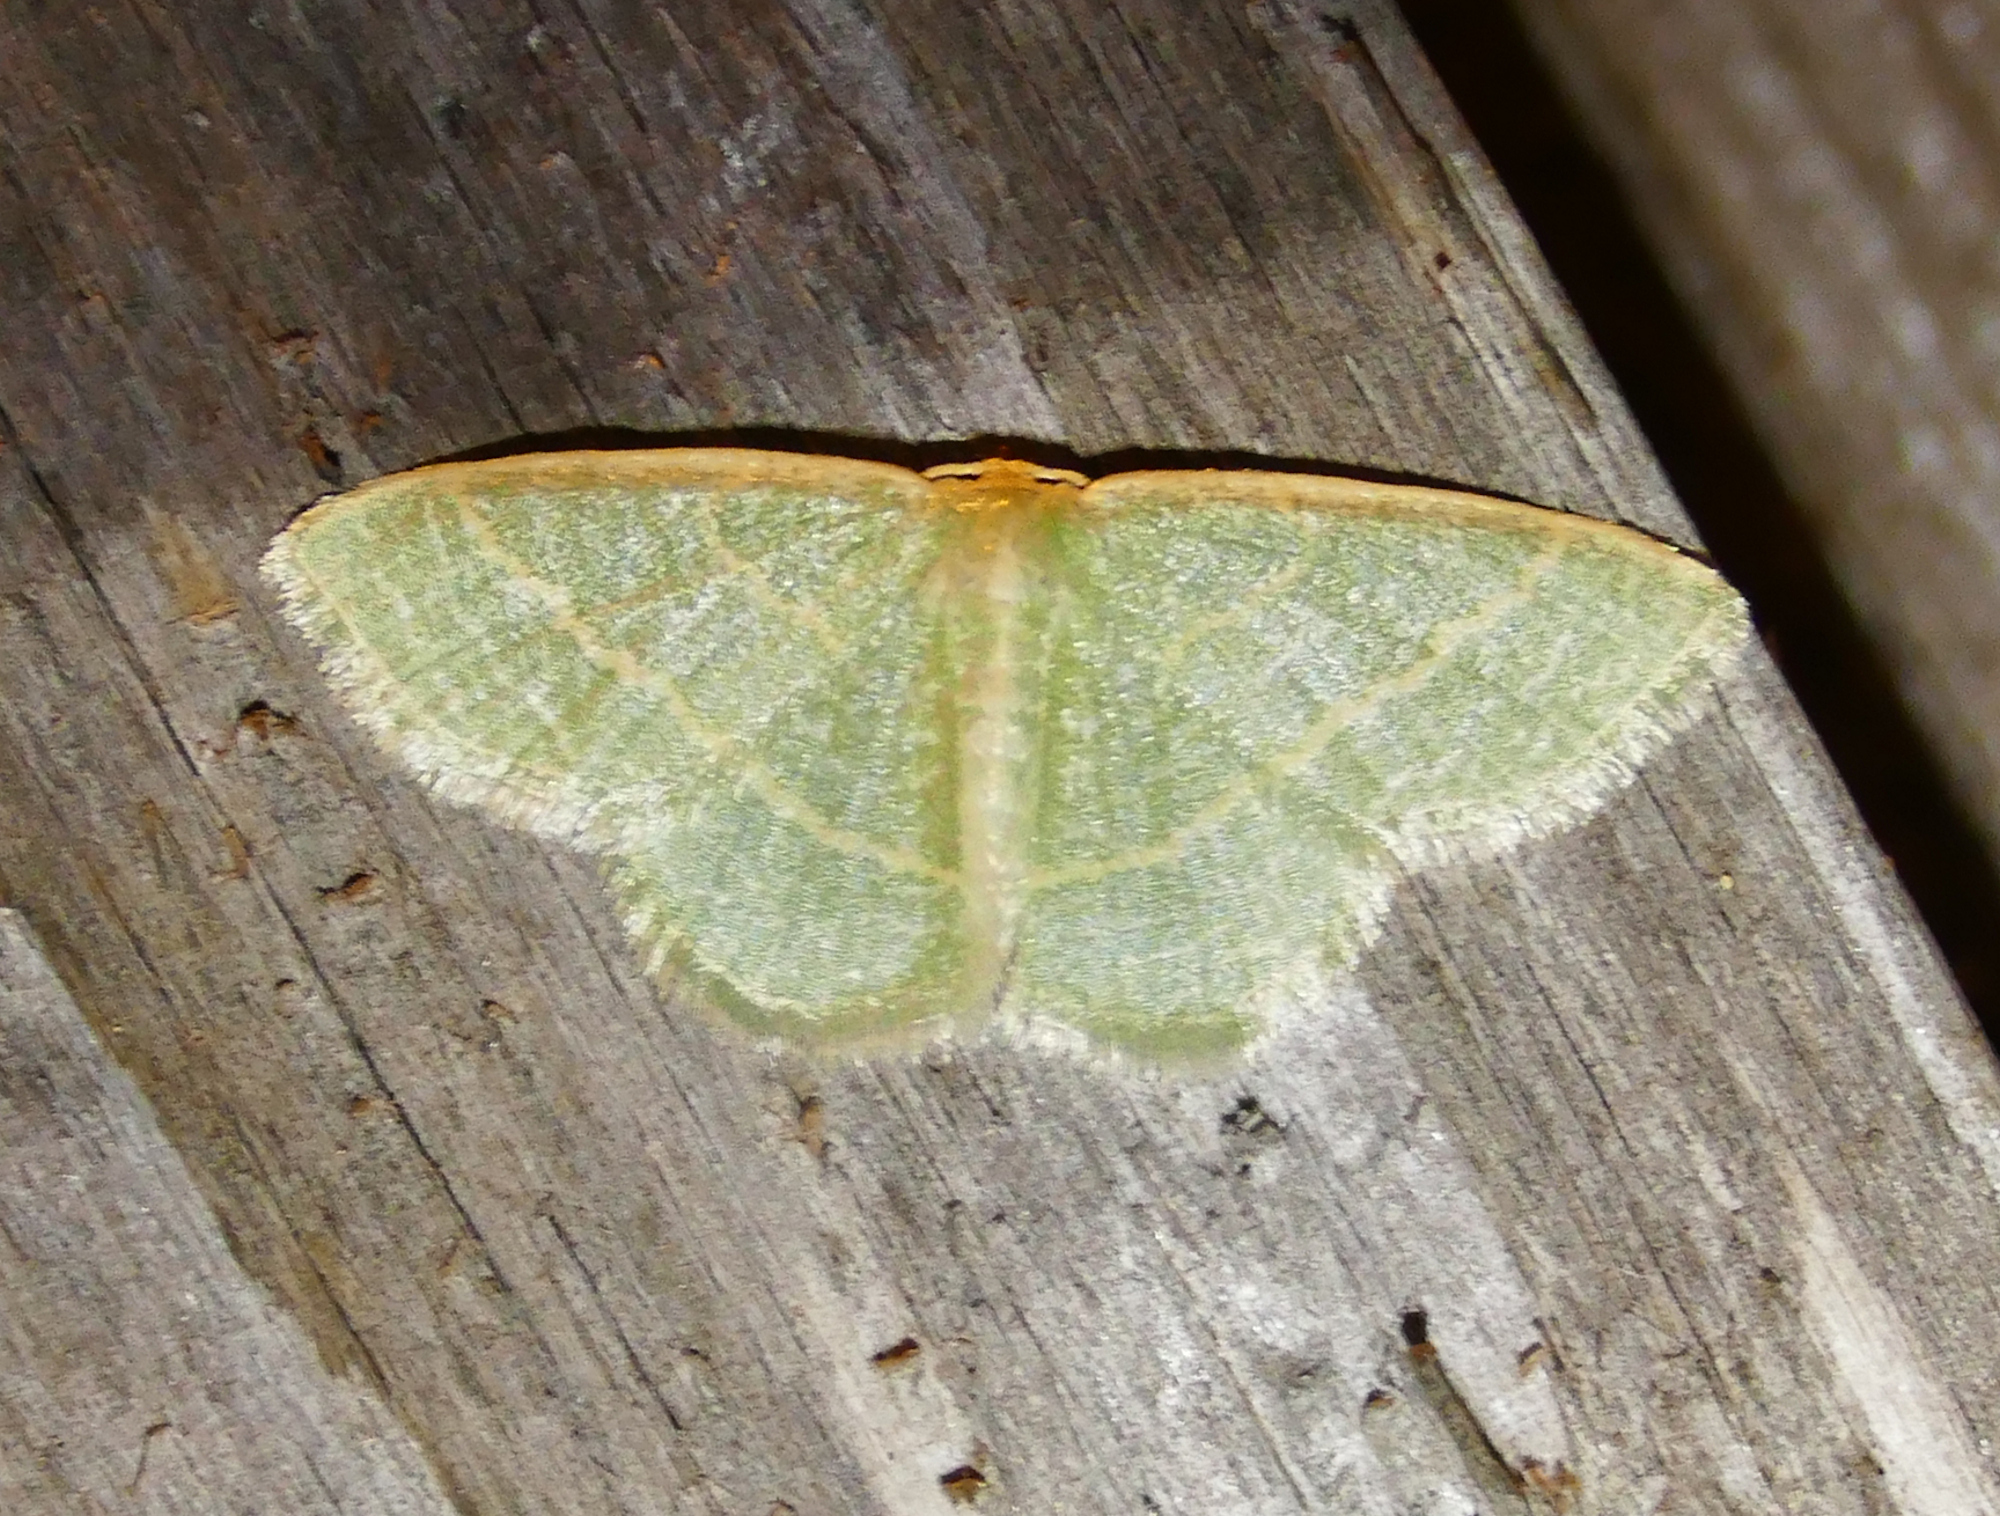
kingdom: Animalia
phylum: Arthropoda
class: Insecta
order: Lepidoptera
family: Geometridae
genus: Chlorochlamys
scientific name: Chlorochlamys chloroleucaria
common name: Blackberry looper
